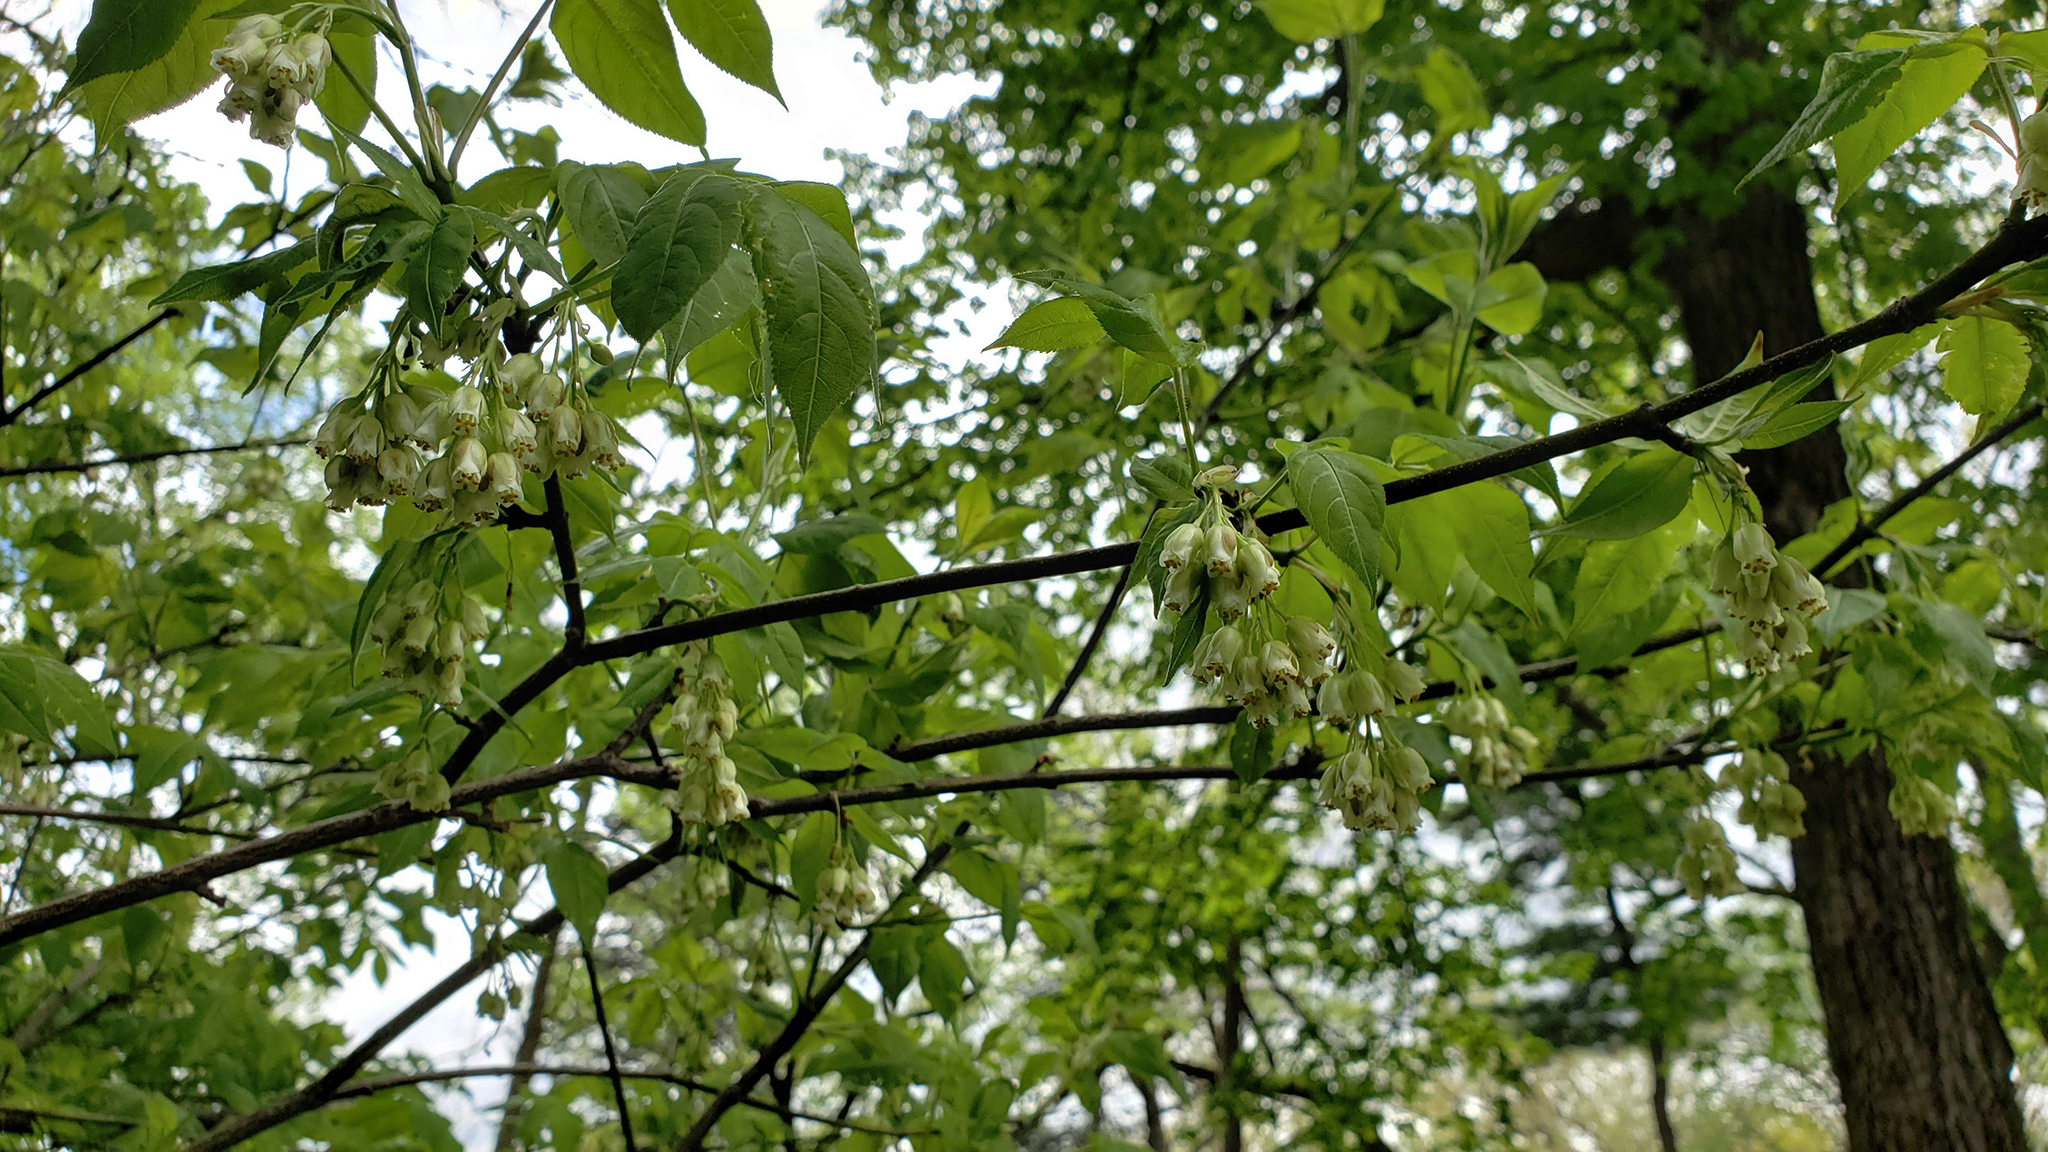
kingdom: Plantae
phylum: Tracheophyta
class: Magnoliopsida
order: Crossosomatales
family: Staphyleaceae
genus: Staphylea
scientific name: Staphylea trifolia
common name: American bladdernut
